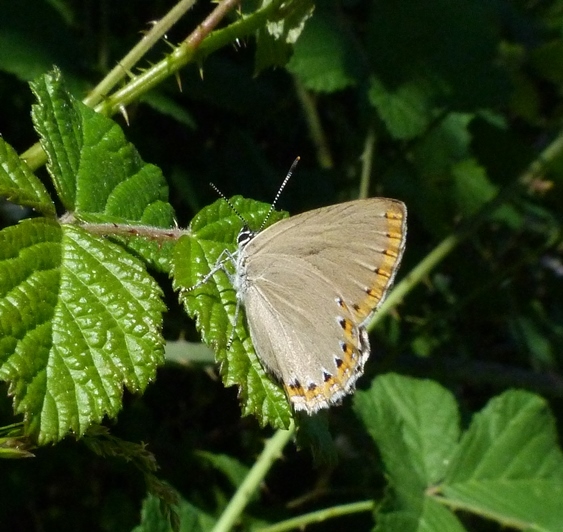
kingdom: Animalia
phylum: Arthropoda
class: Insecta
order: Lepidoptera
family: Lycaenidae
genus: Laeosopis
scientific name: Laeosopis roboris
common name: Spanish purple hairstreak
